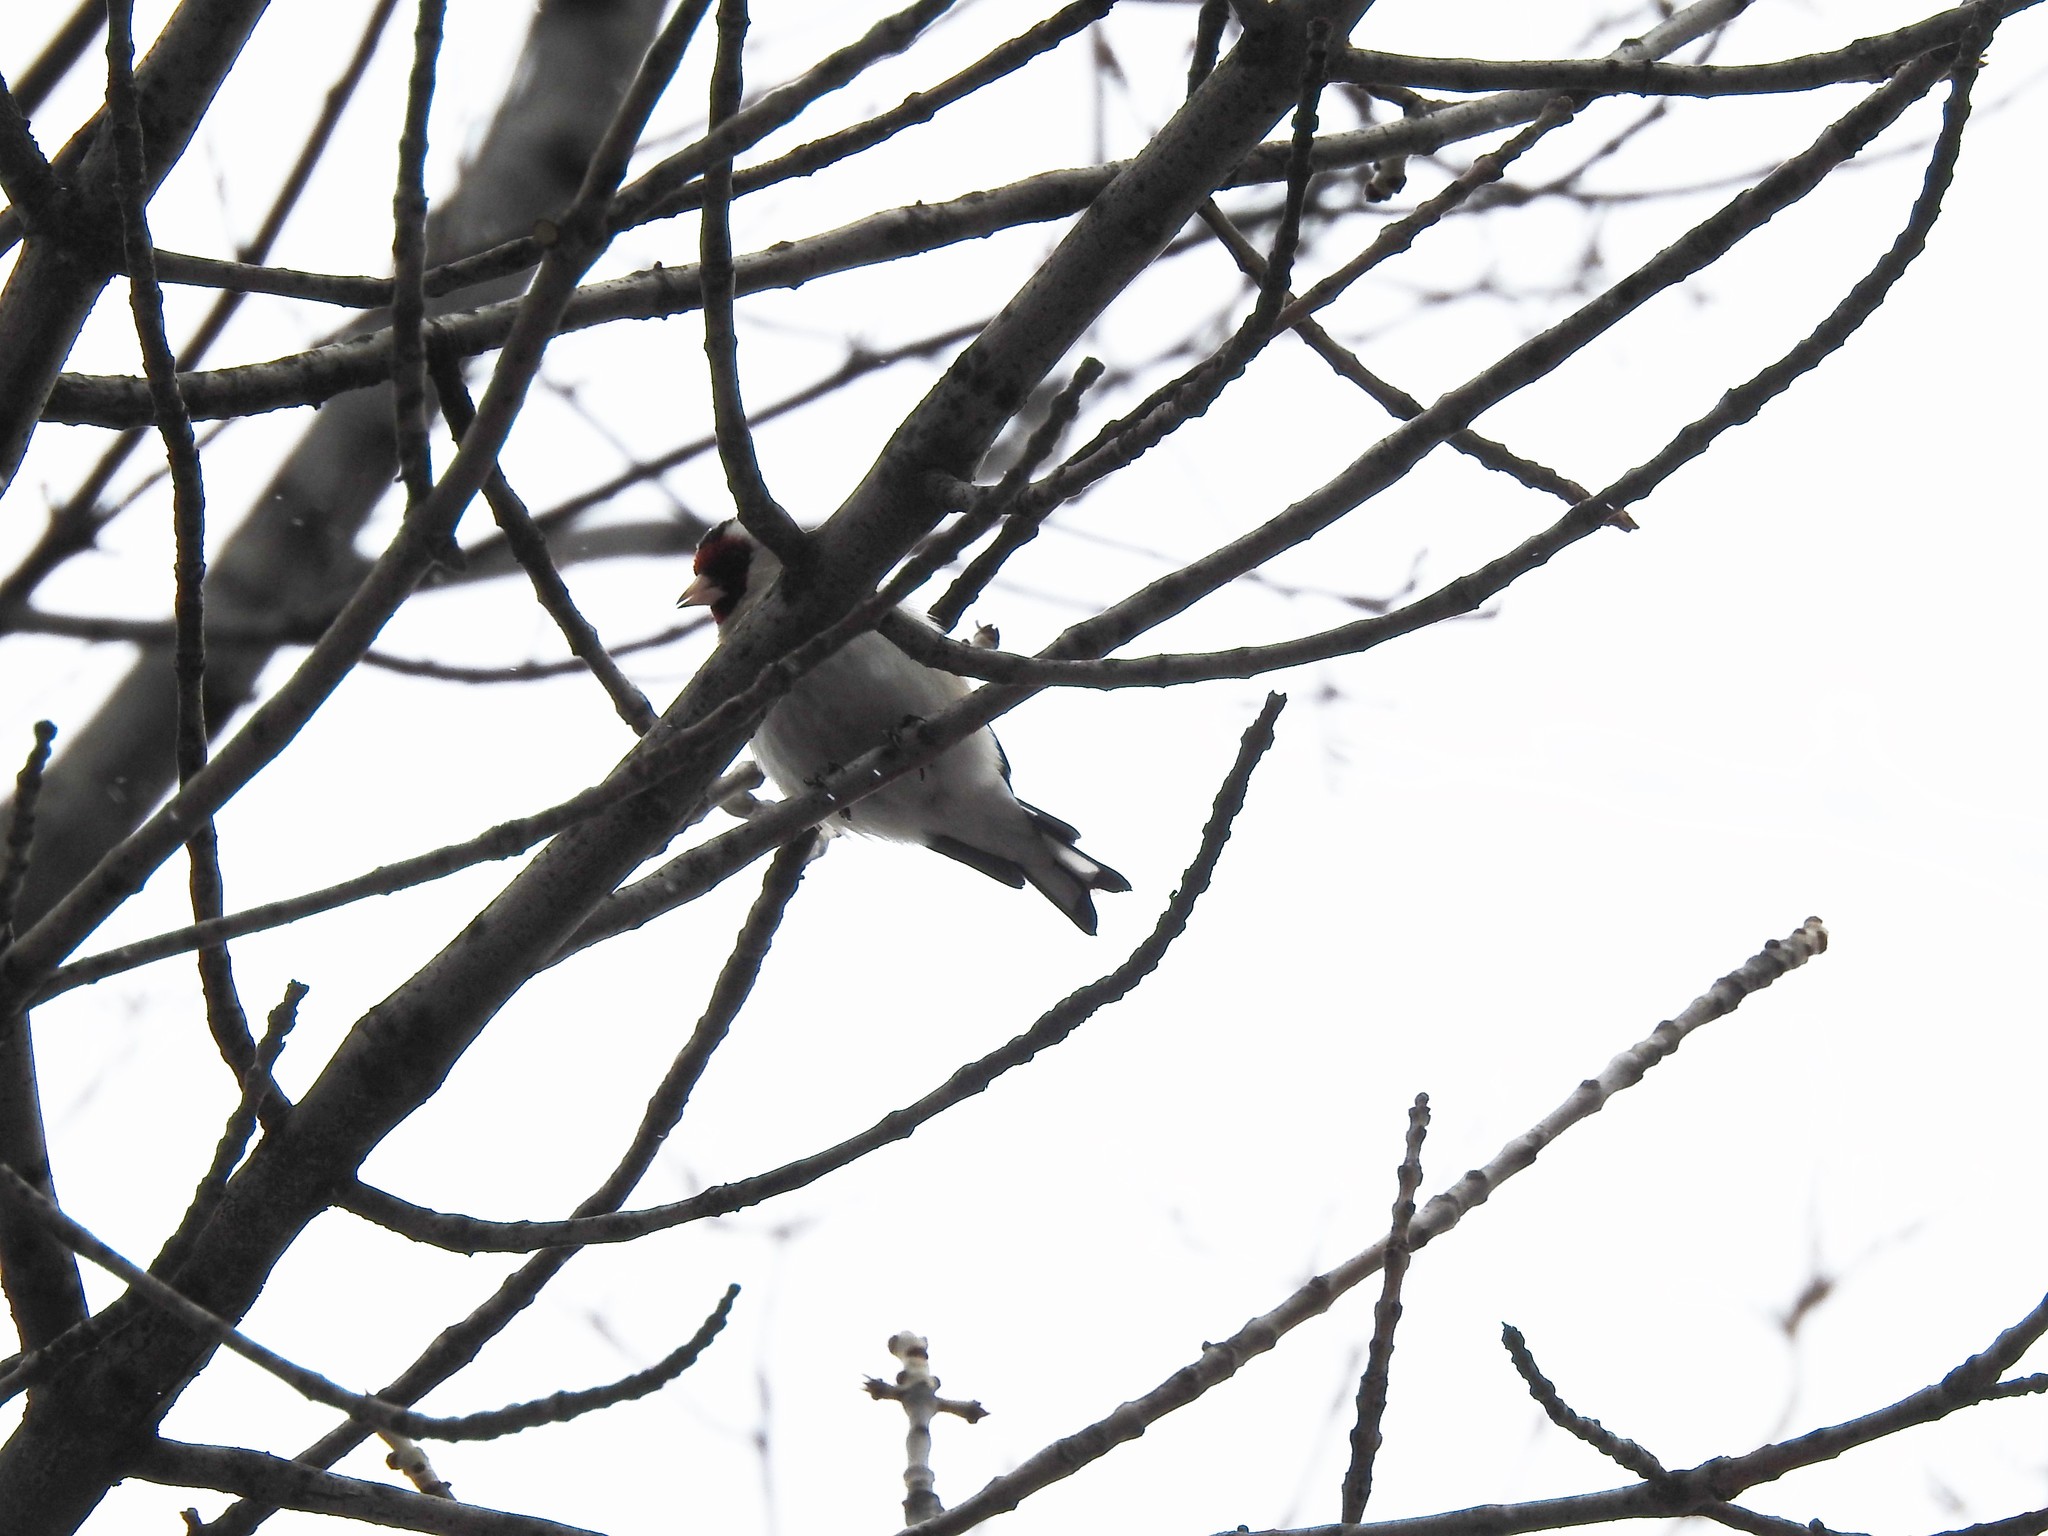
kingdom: Animalia
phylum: Chordata
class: Aves
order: Passeriformes
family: Fringillidae
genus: Carduelis
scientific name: Carduelis carduelis
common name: European goldfinch
